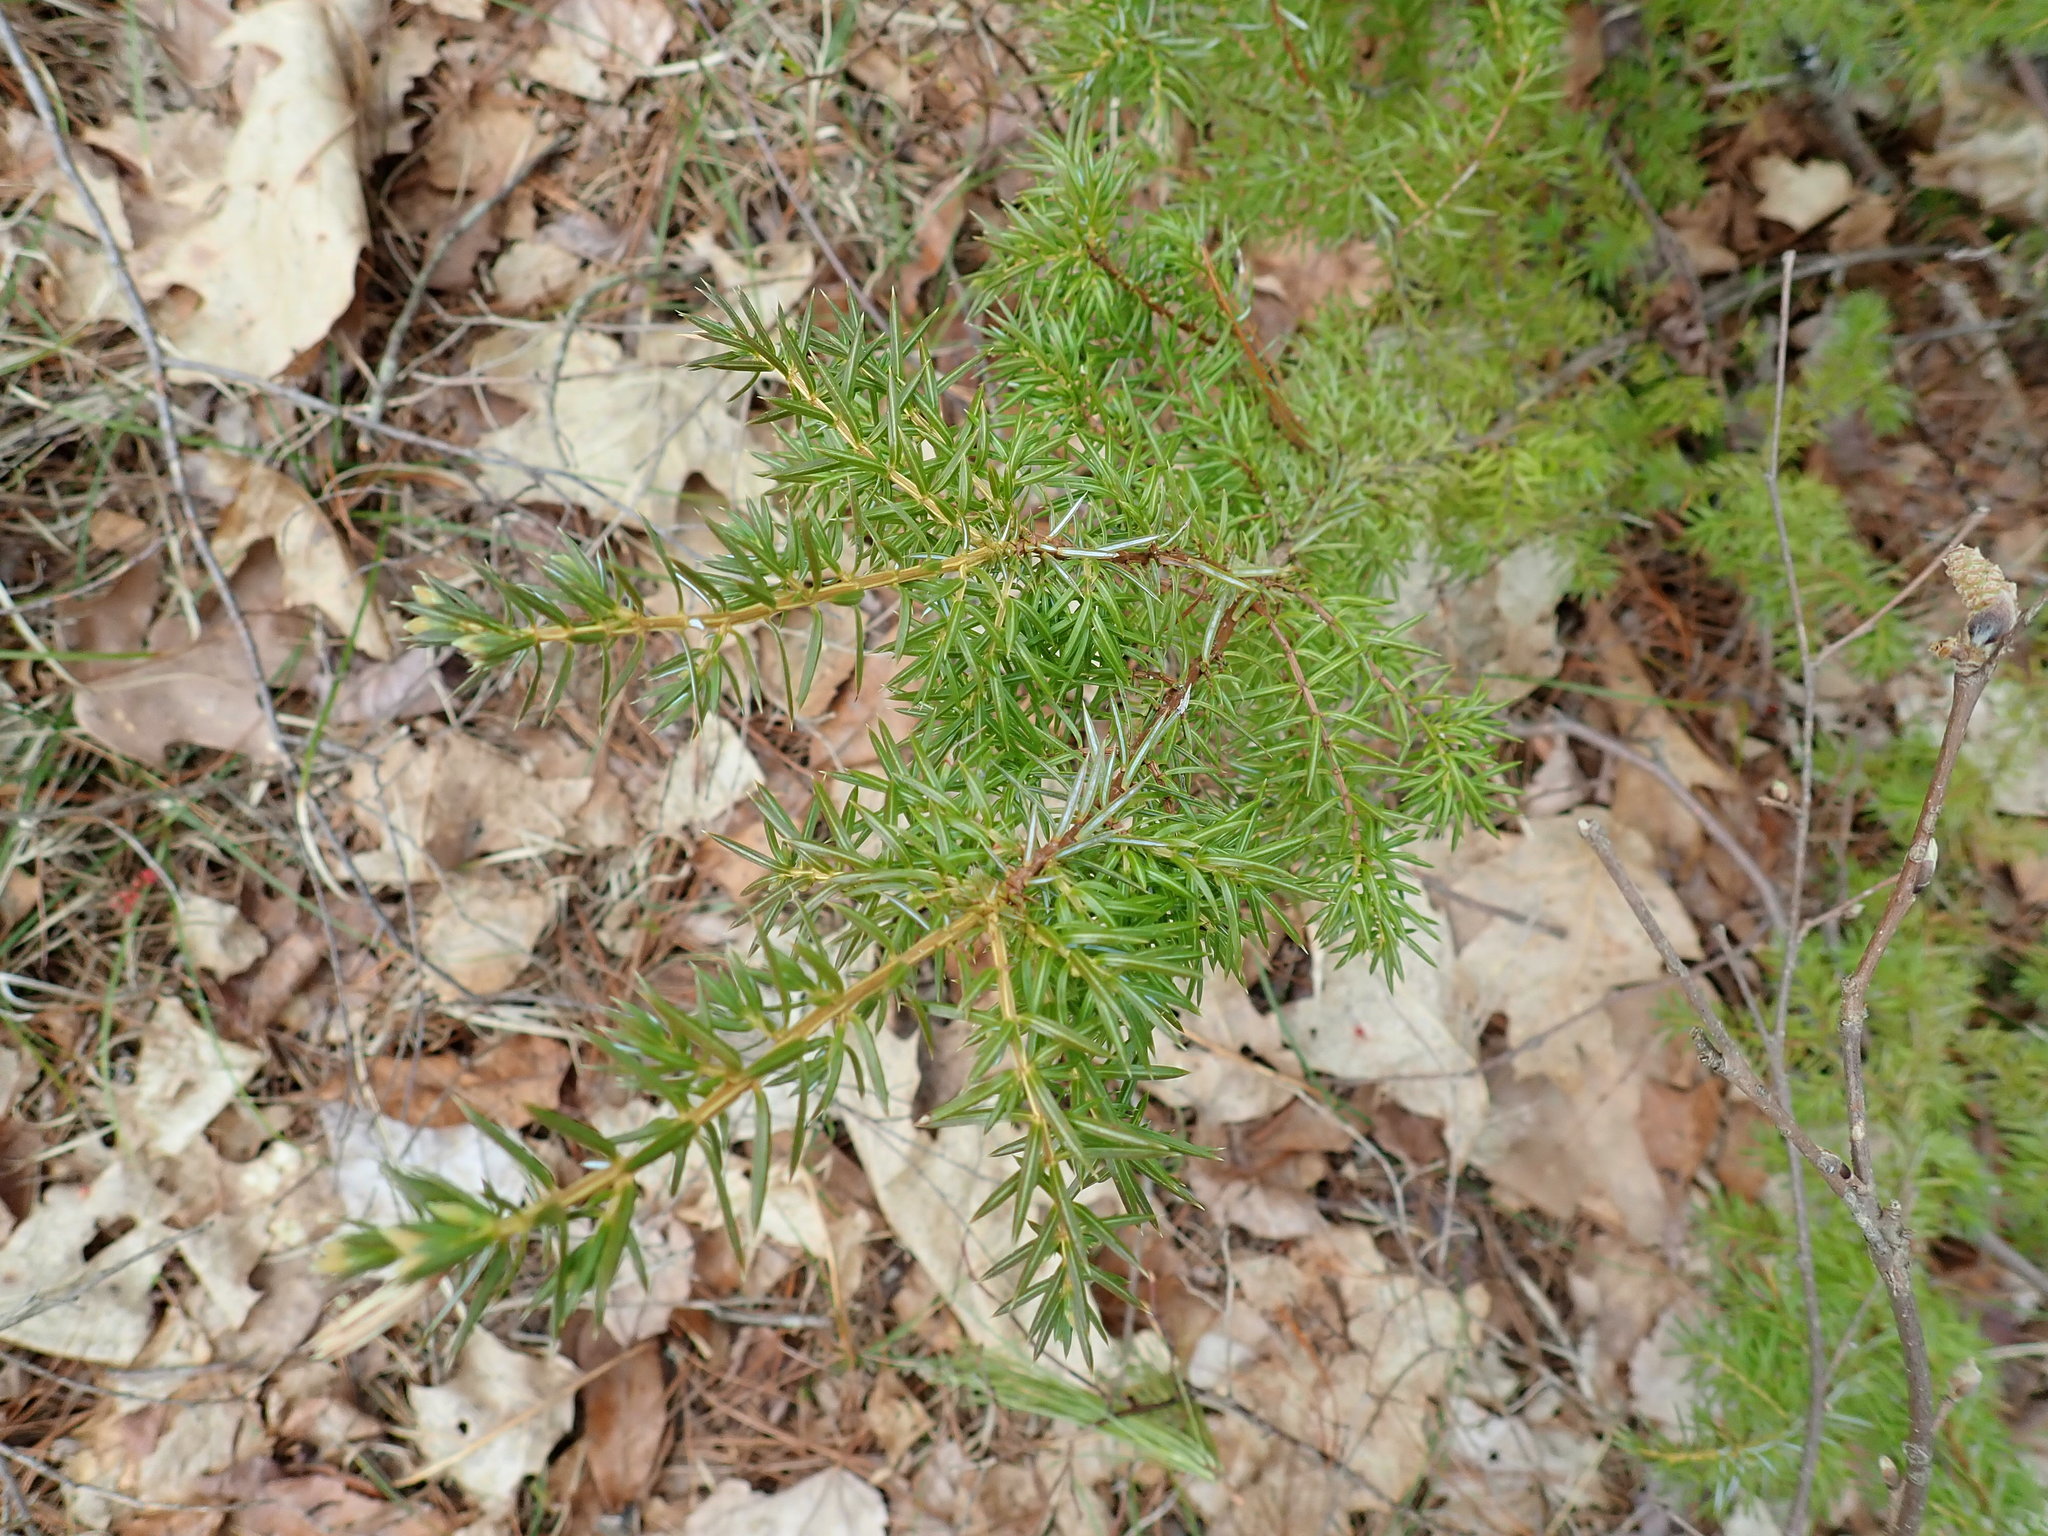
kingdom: Plantae
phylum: Tracheophyta
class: Pinopsida
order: Pinales
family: Cupressaceae
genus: Juniperus
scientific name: Juniperus communis
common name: Common juniper
